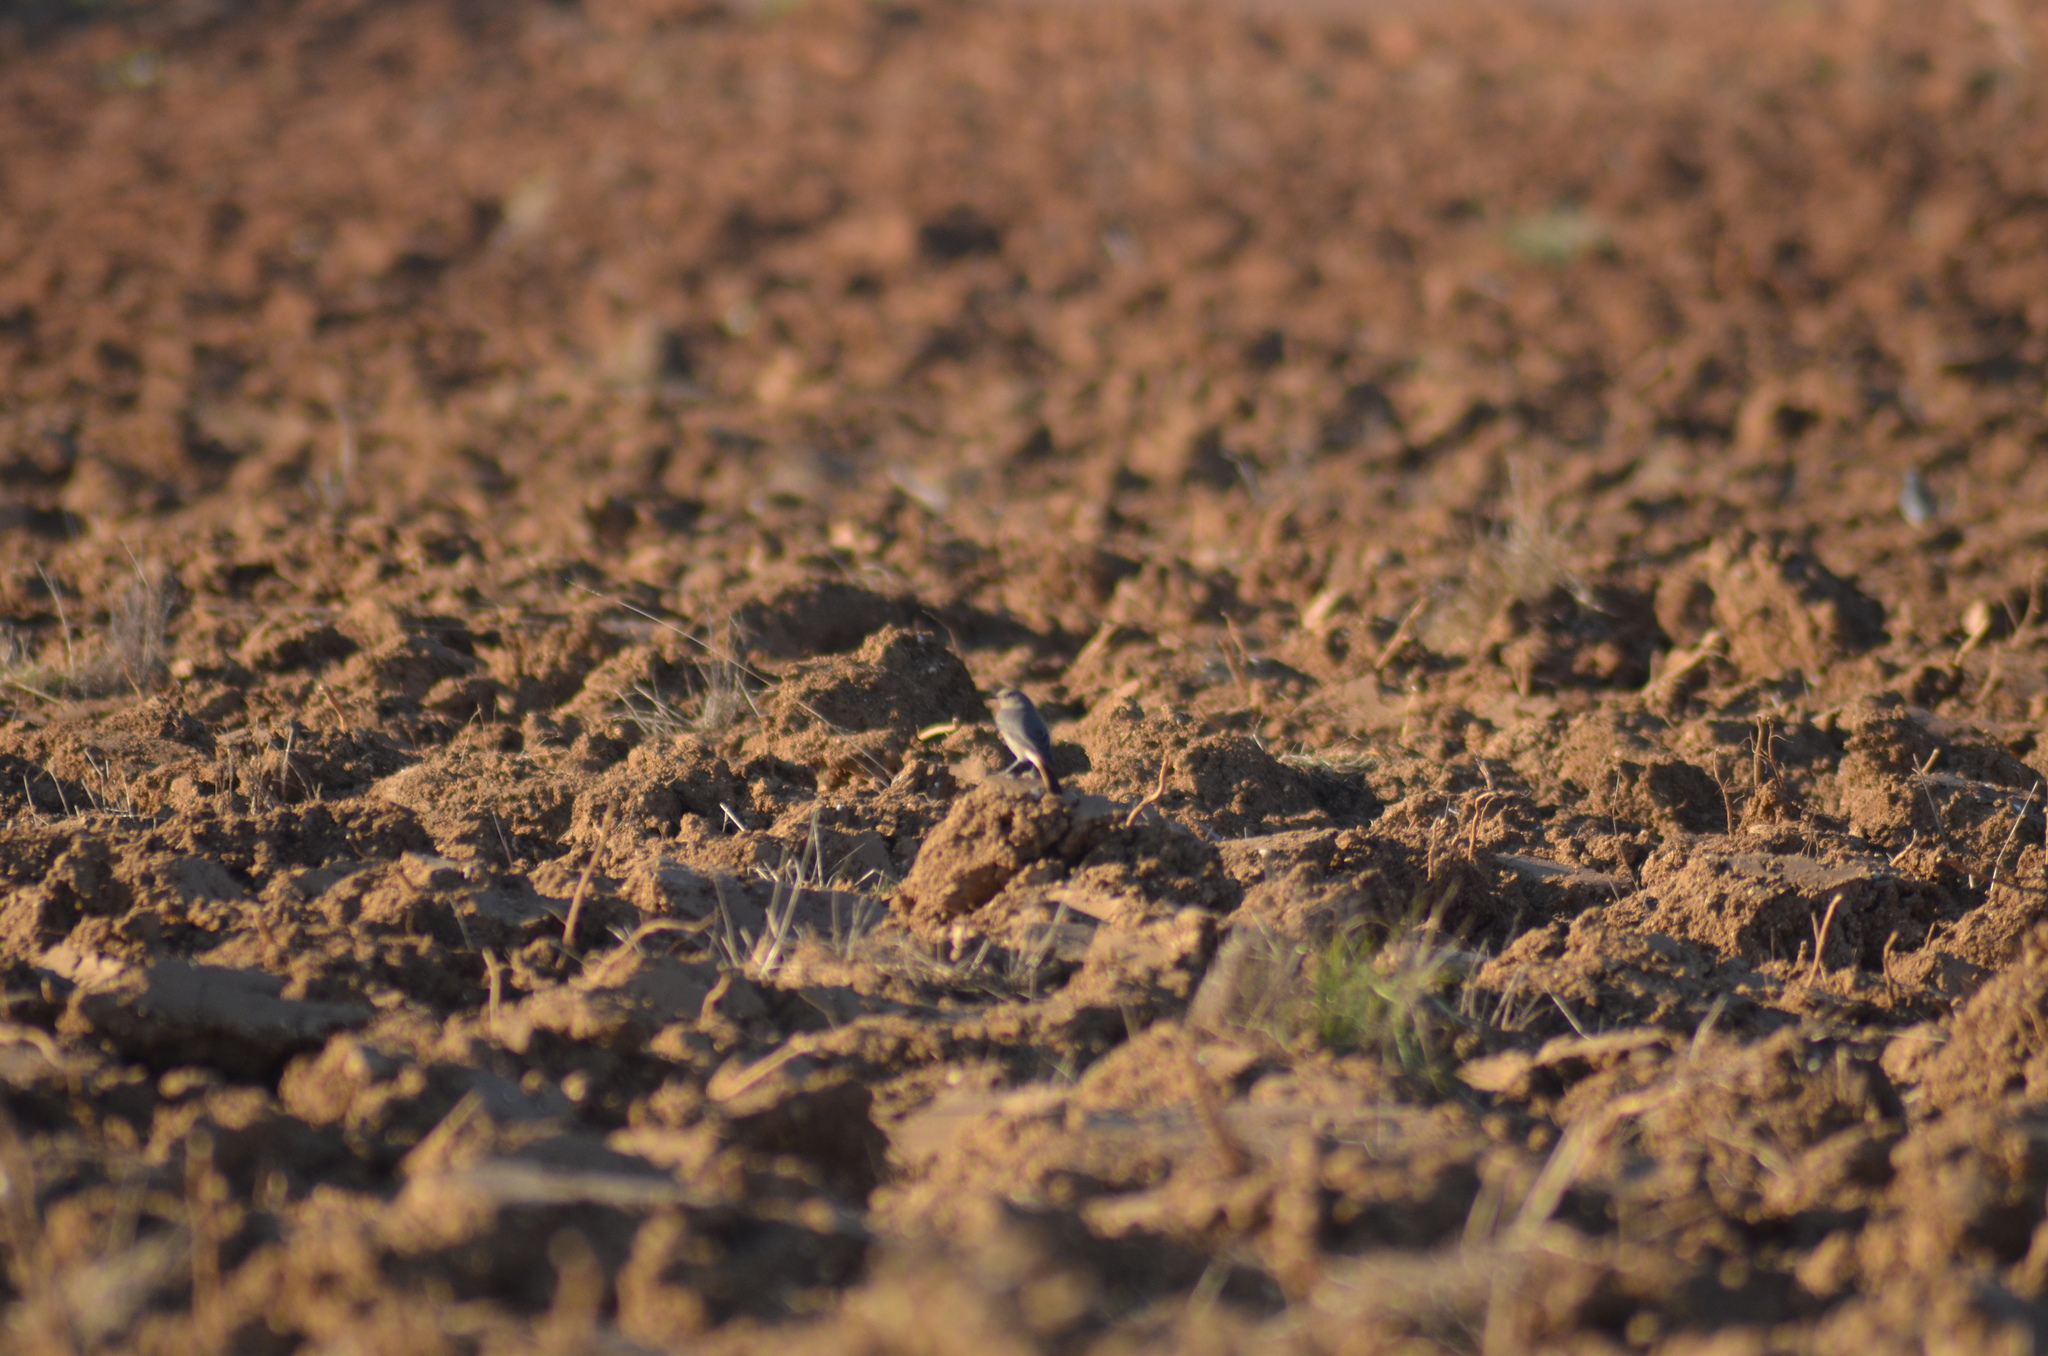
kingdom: Animalia
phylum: Chordata
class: Aves
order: Passeriformes
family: Muscicapidae
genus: Phoenicurus
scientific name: Phoenicurus ochruros
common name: Black redstart
